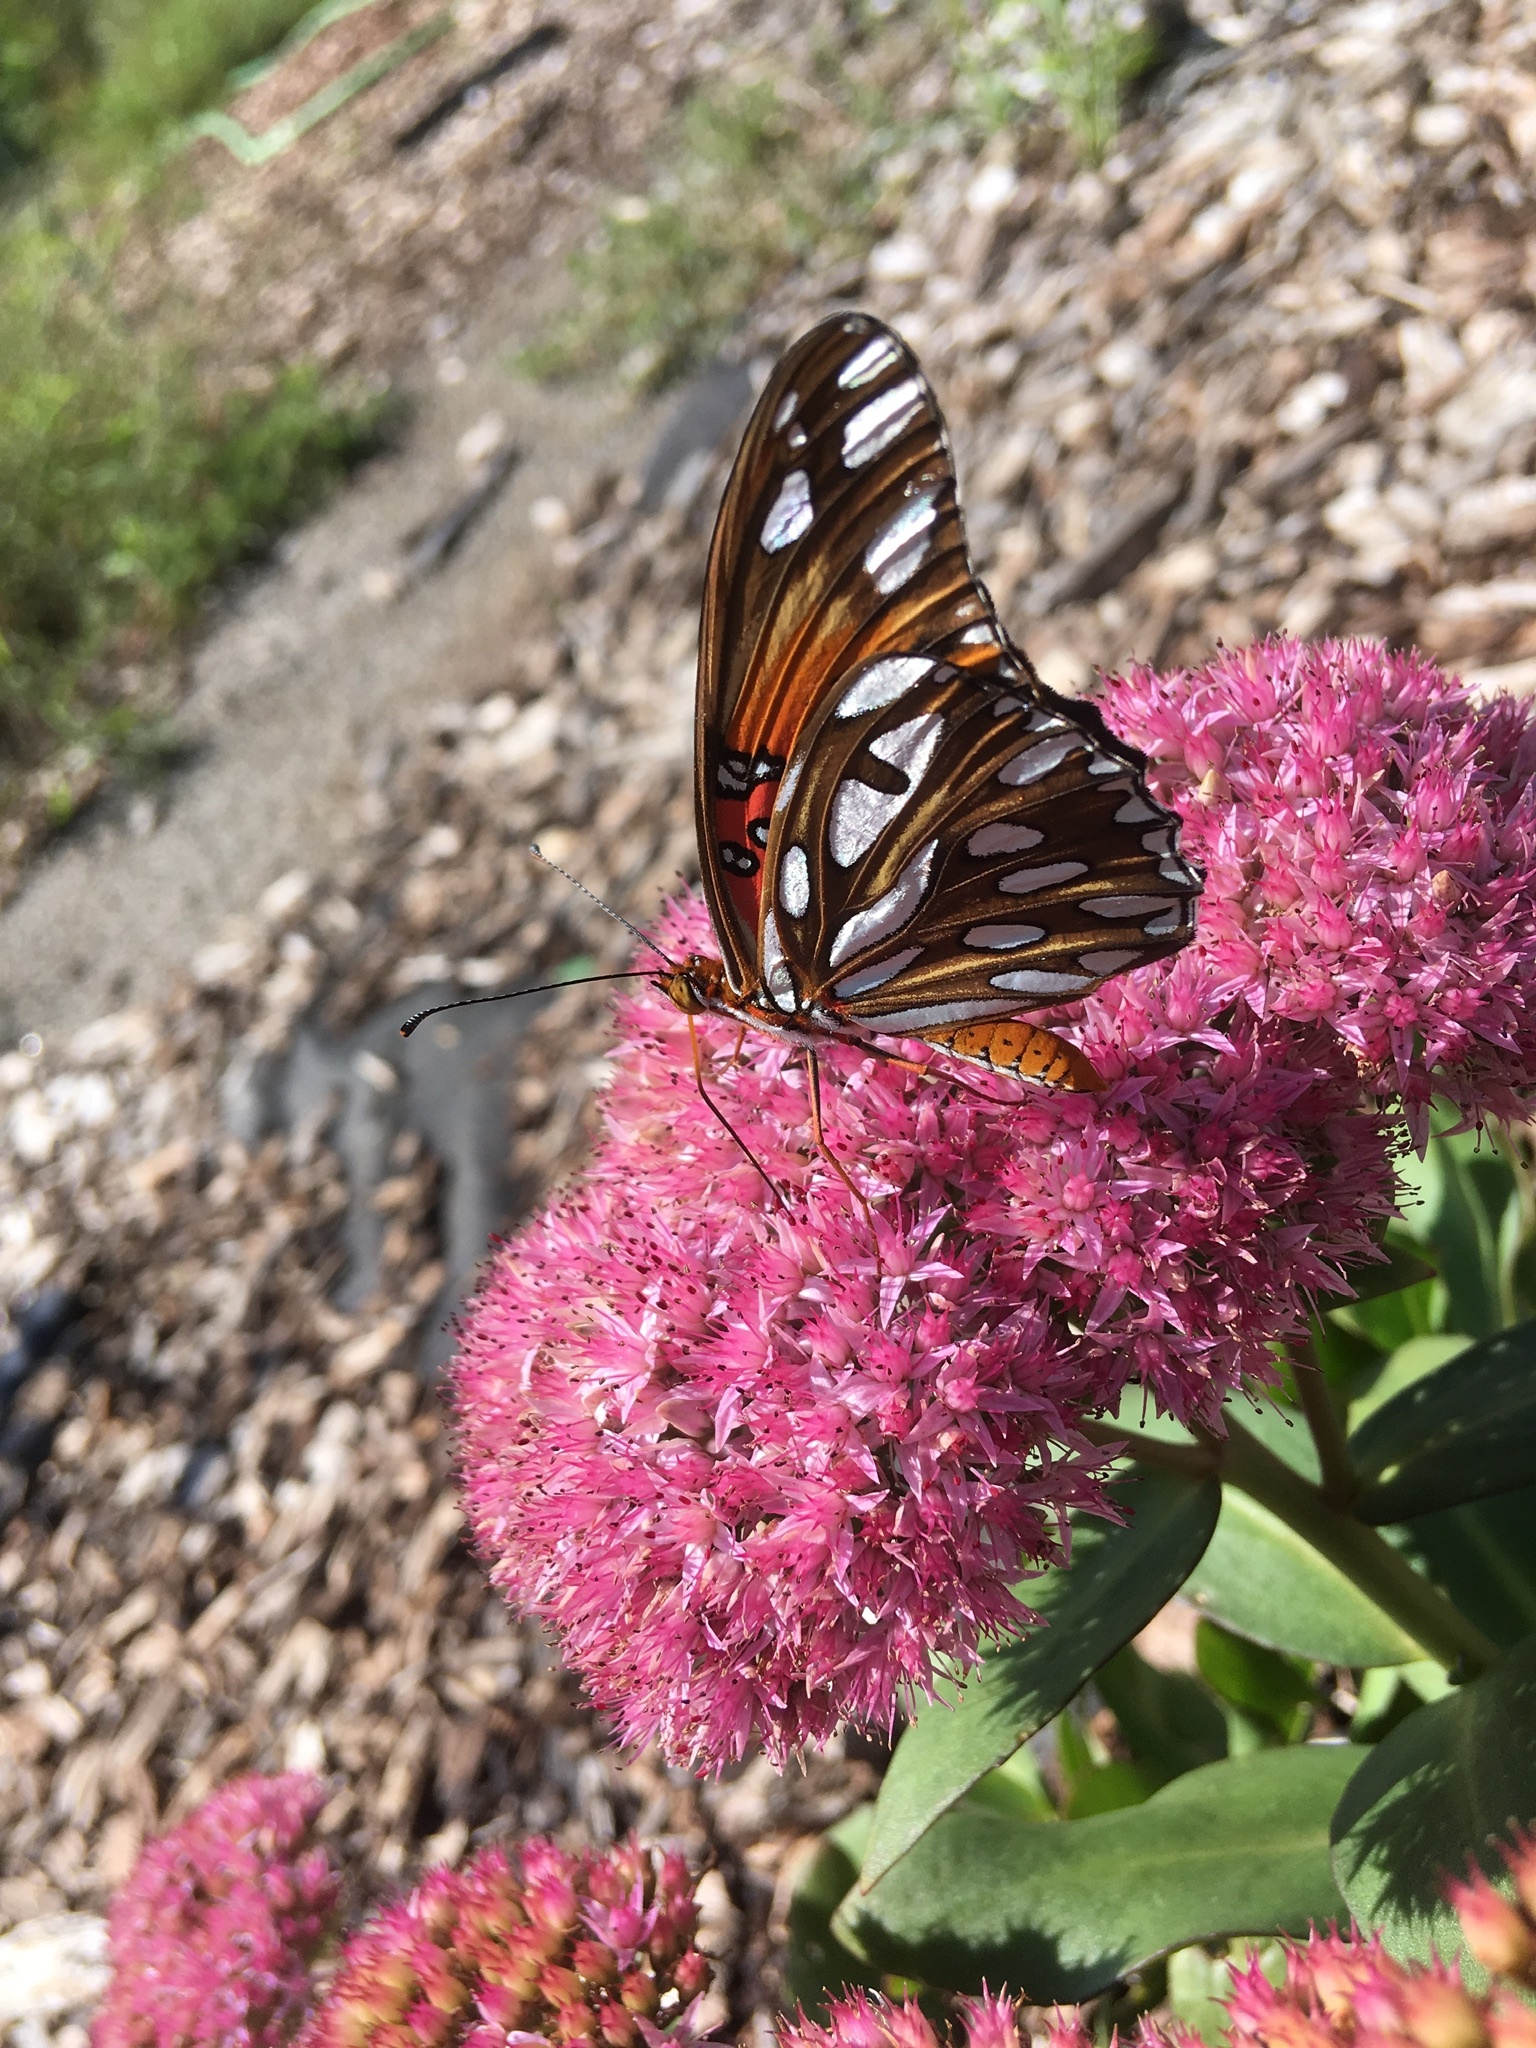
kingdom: Animalia
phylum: Arthropoda
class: Insecta
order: Lepidoptera
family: Nymphalidae
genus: Dione
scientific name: Dione vanillae
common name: Gulf fritillary
